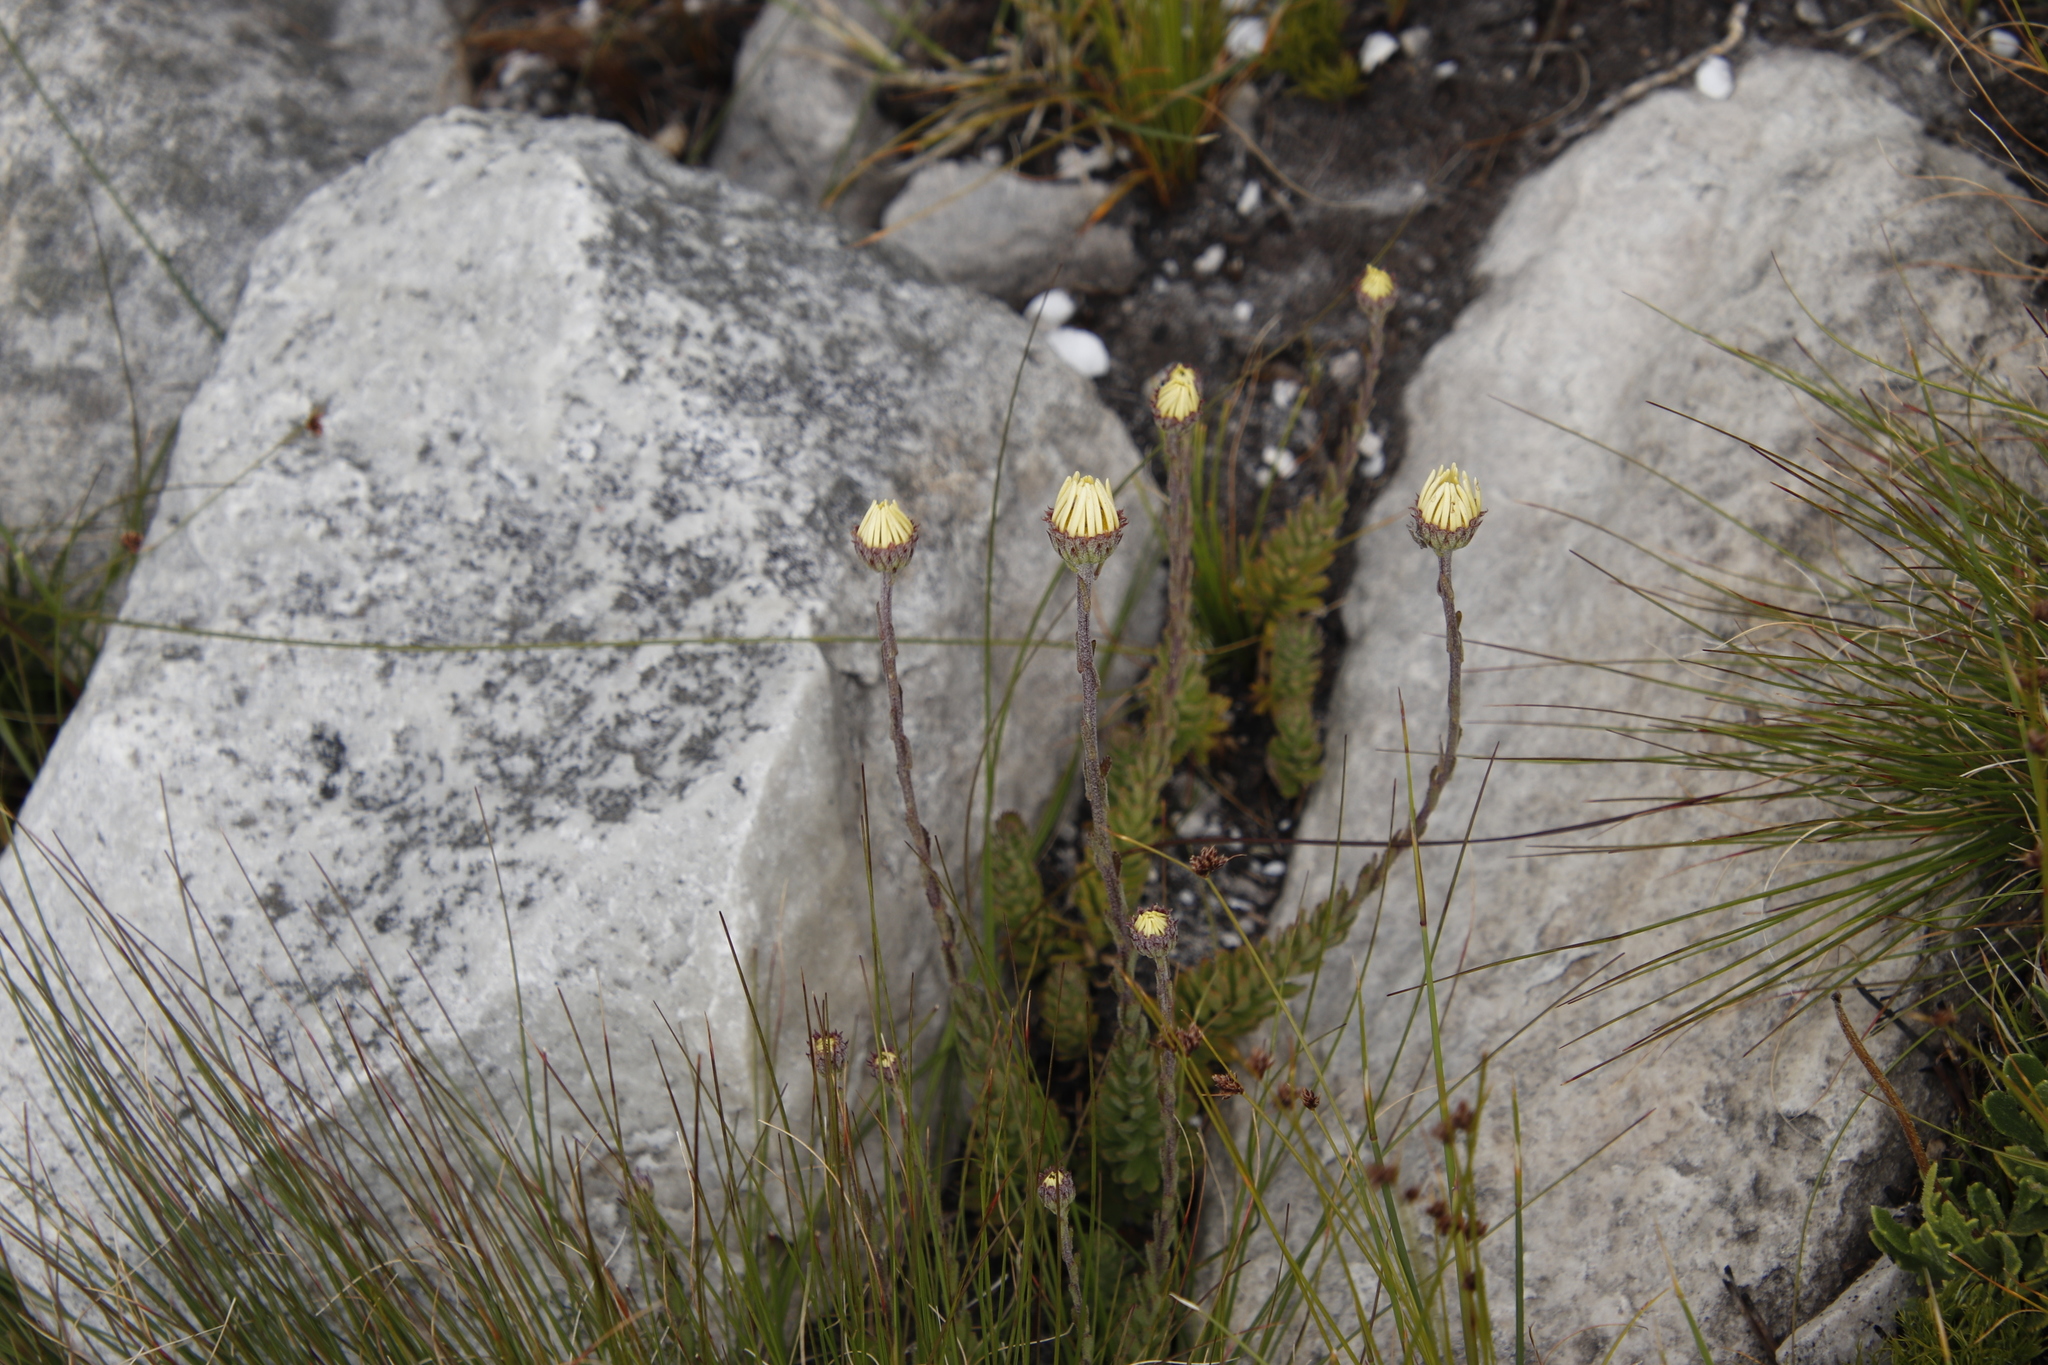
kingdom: Plantae
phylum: Tracheophyta
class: Magnoliopsida
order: Asterales
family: Asteraceae
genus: Osmitopsis
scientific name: Osmitopsis afra
